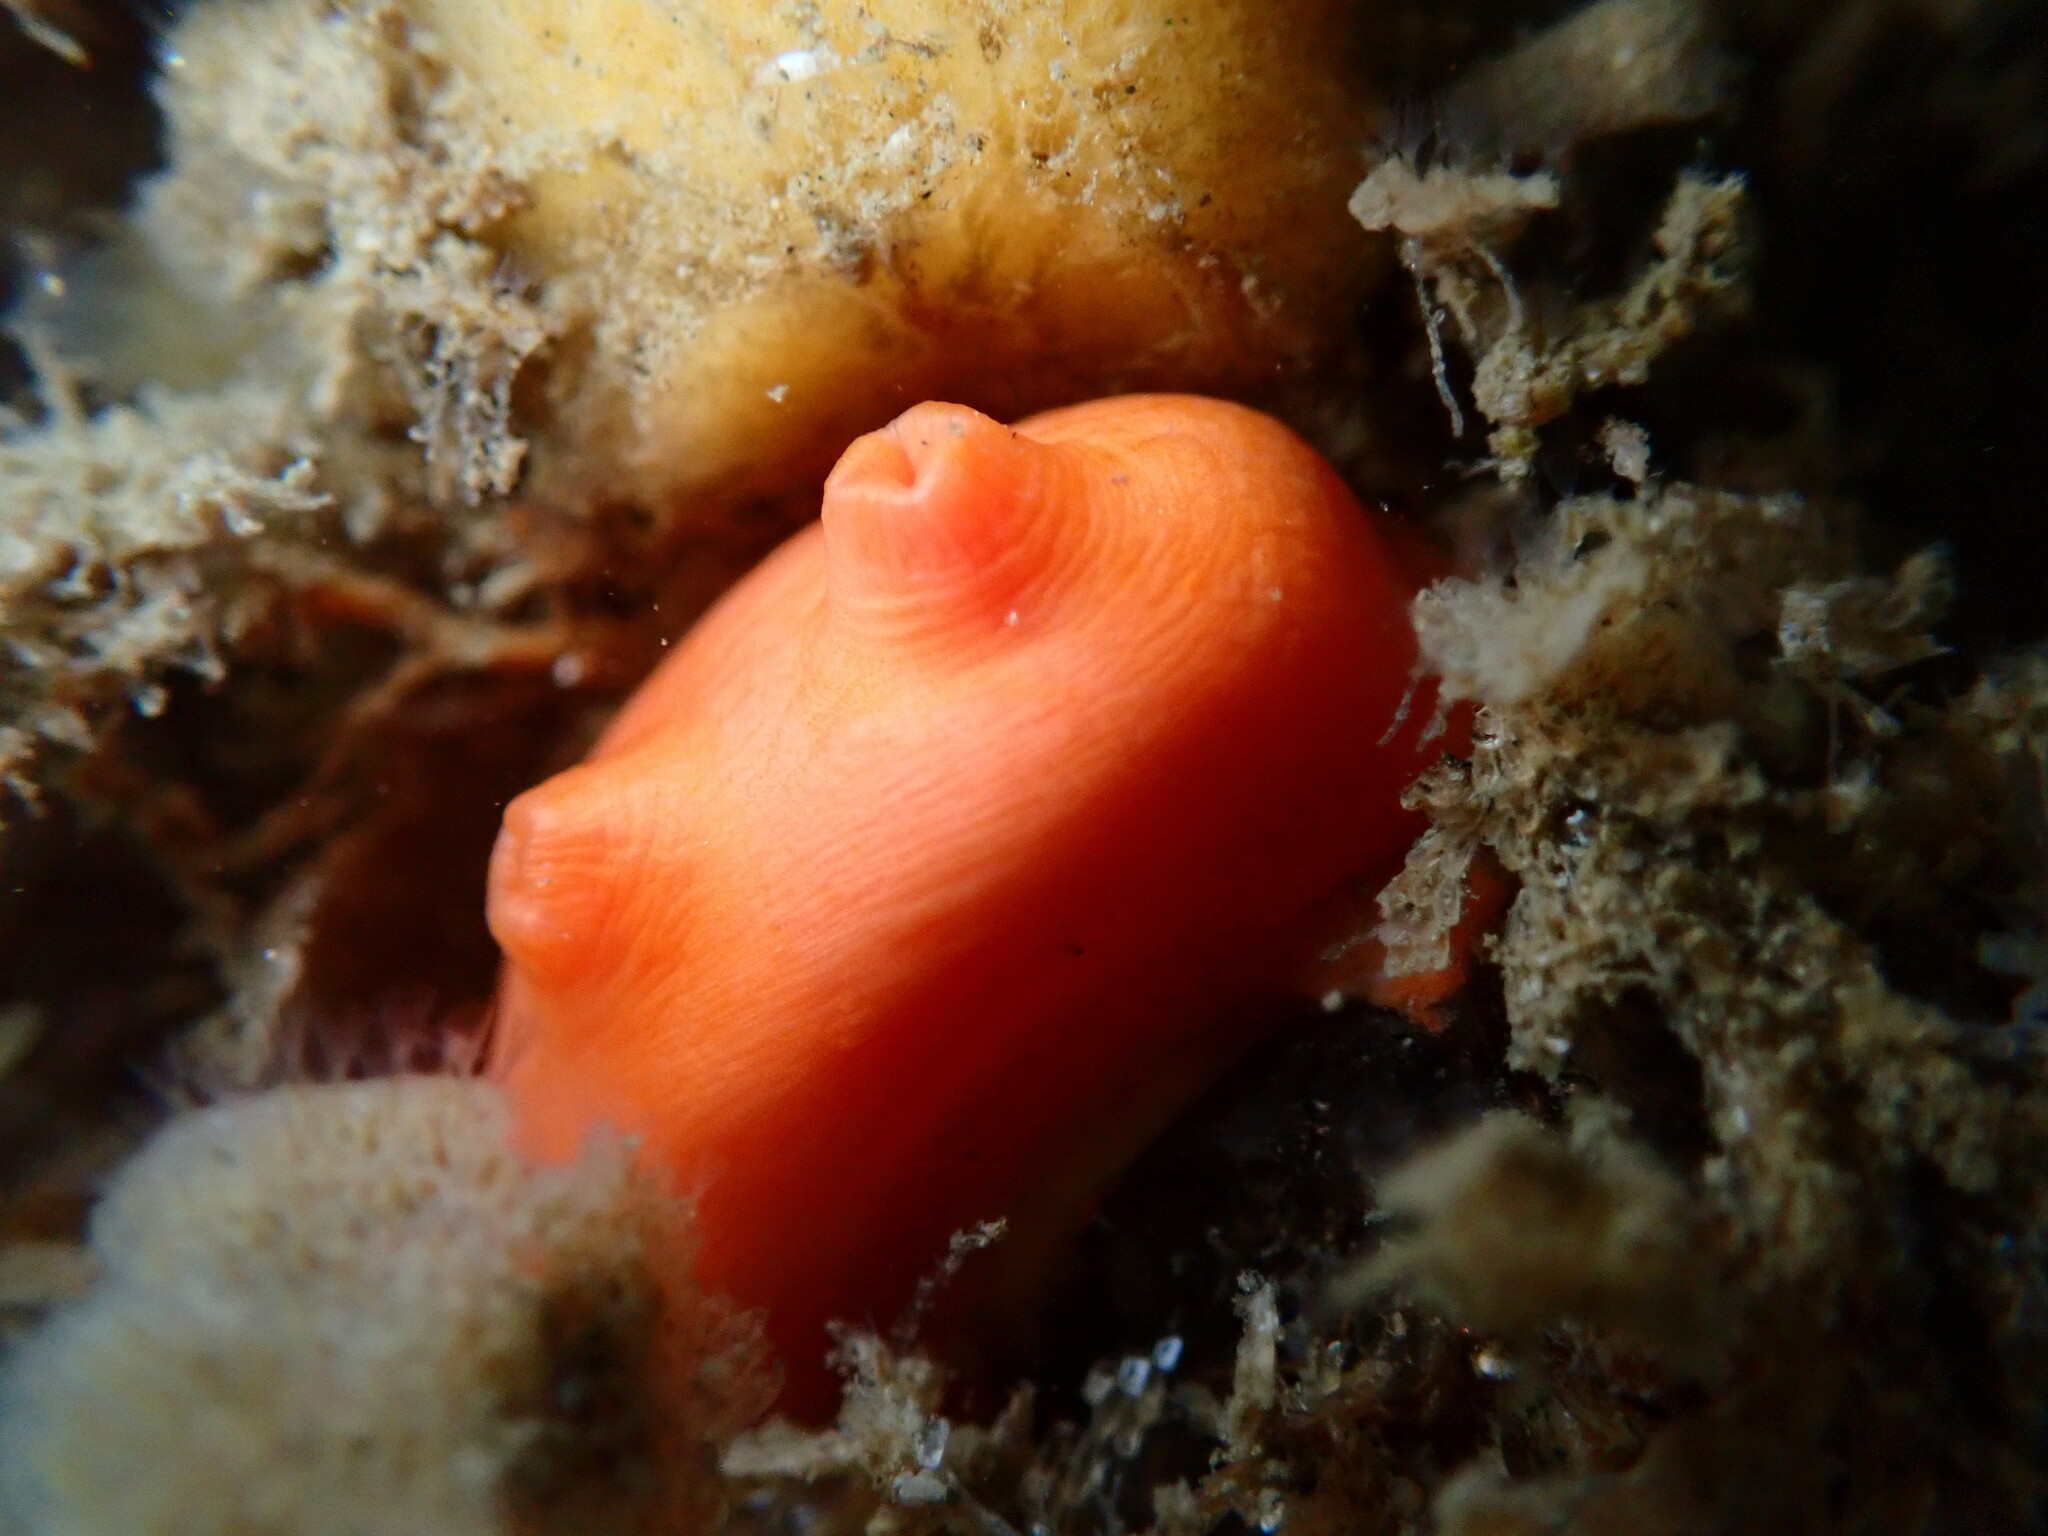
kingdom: Animalia
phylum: Chordata
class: Ascidiacea
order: Stolidobranchia
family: Styelidae
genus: Cnemidocarpa
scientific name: Cnemidocarpa finmarkiensis
